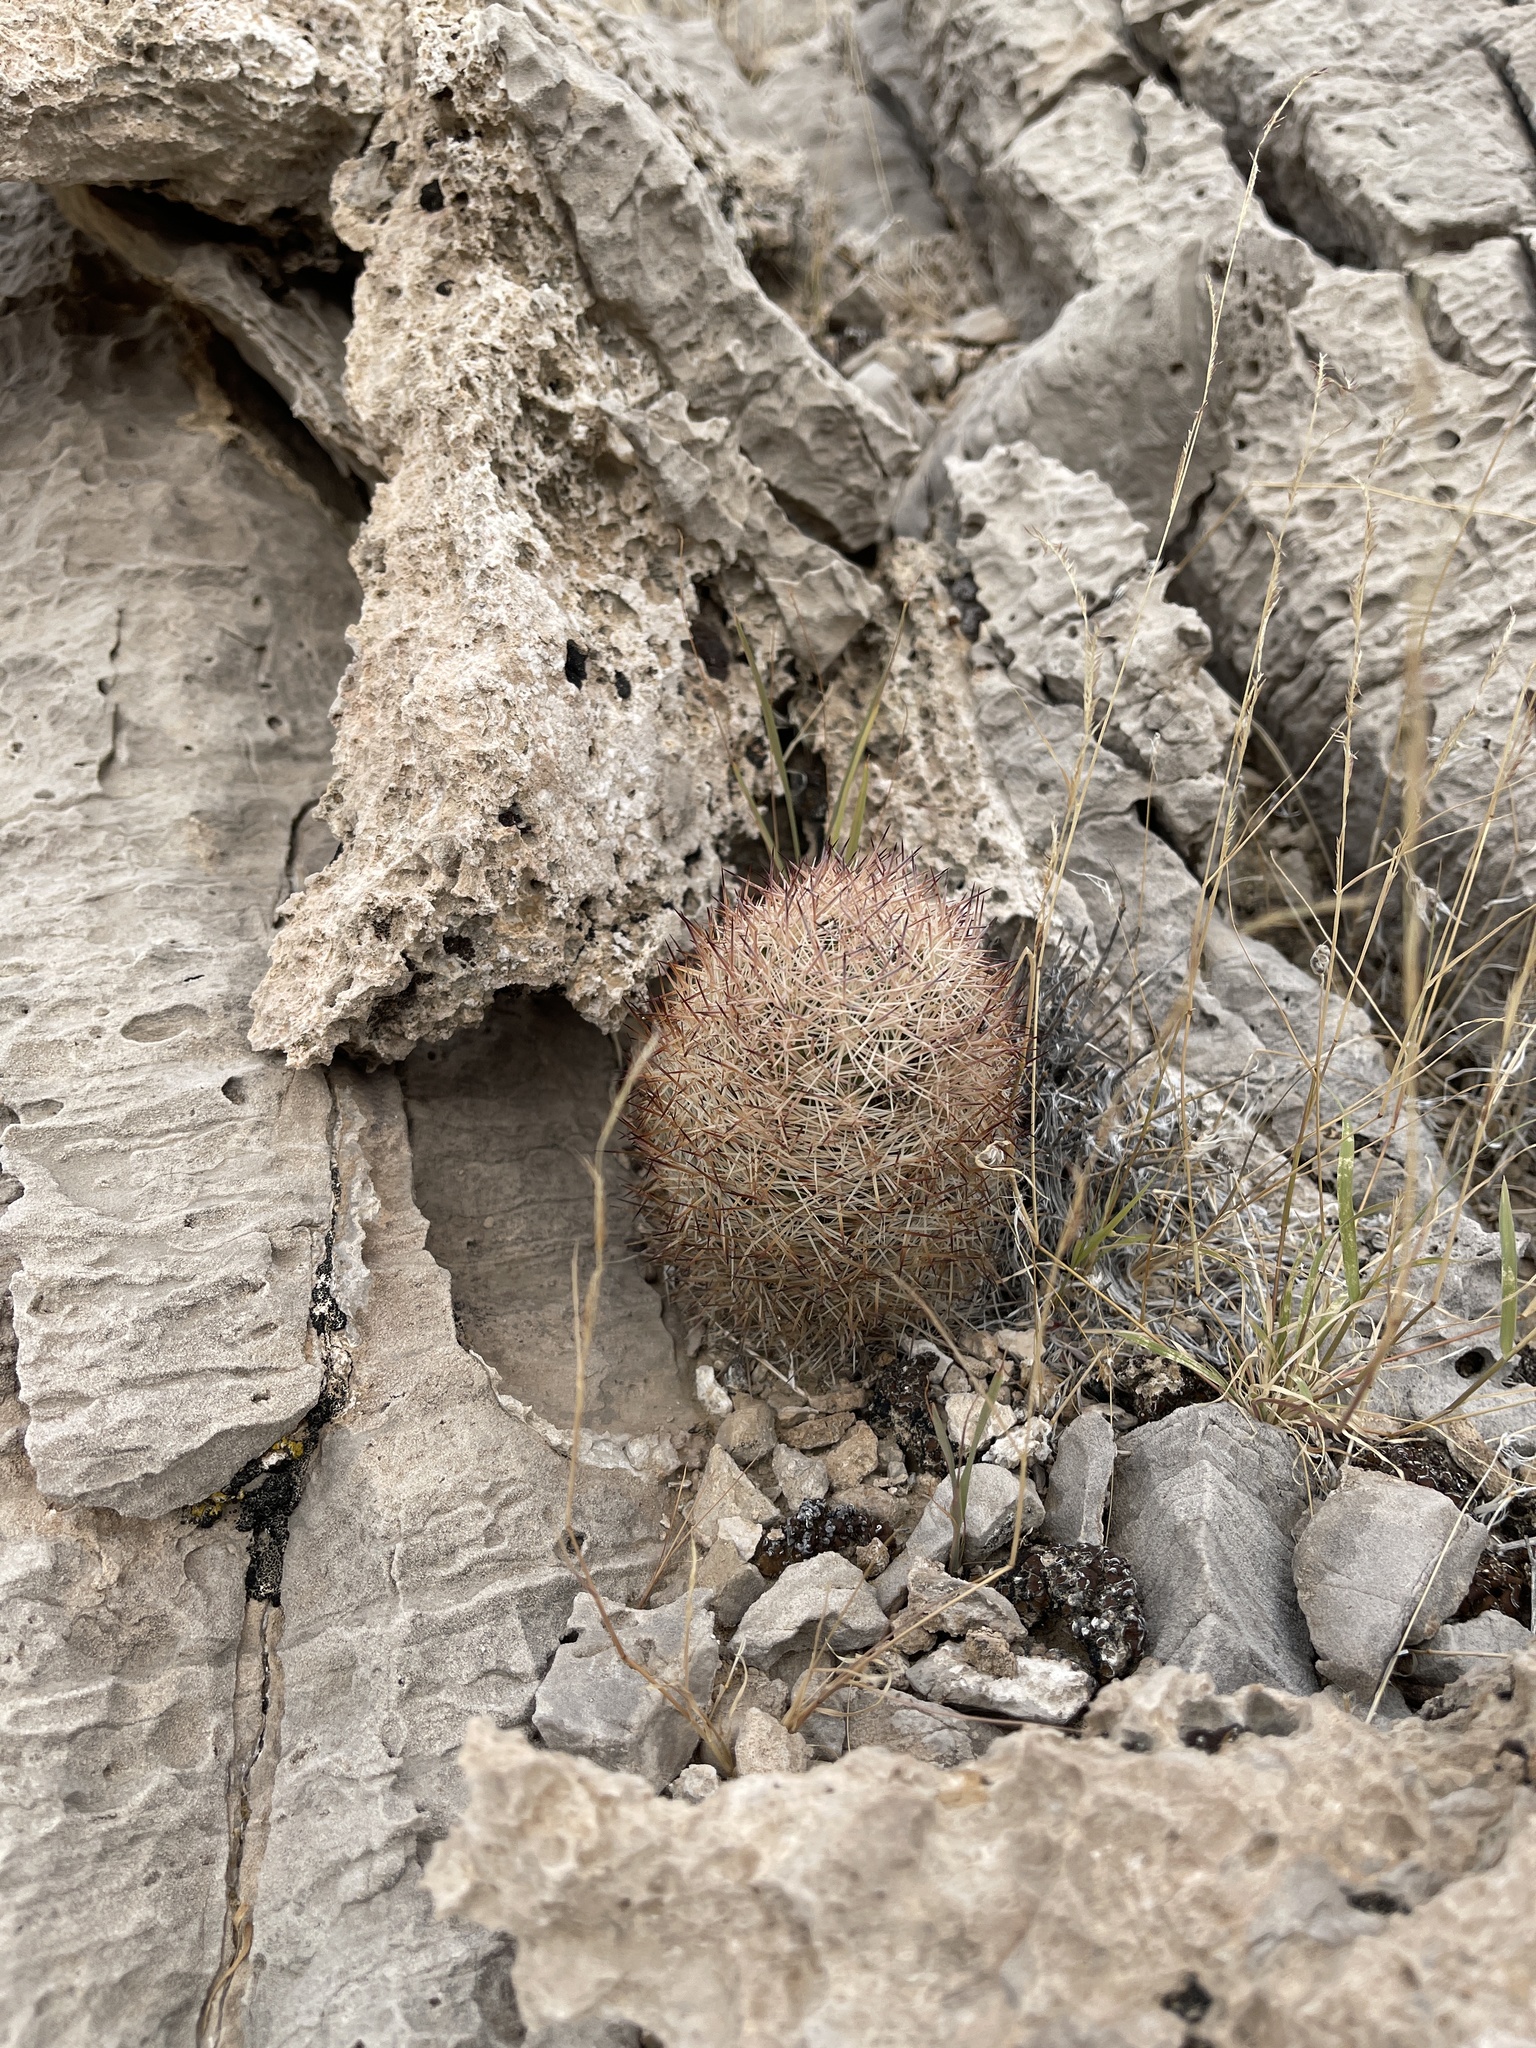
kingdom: Plantae
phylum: Tracheophyta
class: Magnoliopsida
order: Caryophyllales
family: Cactaceae
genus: Pelecyphora
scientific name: Pelecyphora dasyacantha
